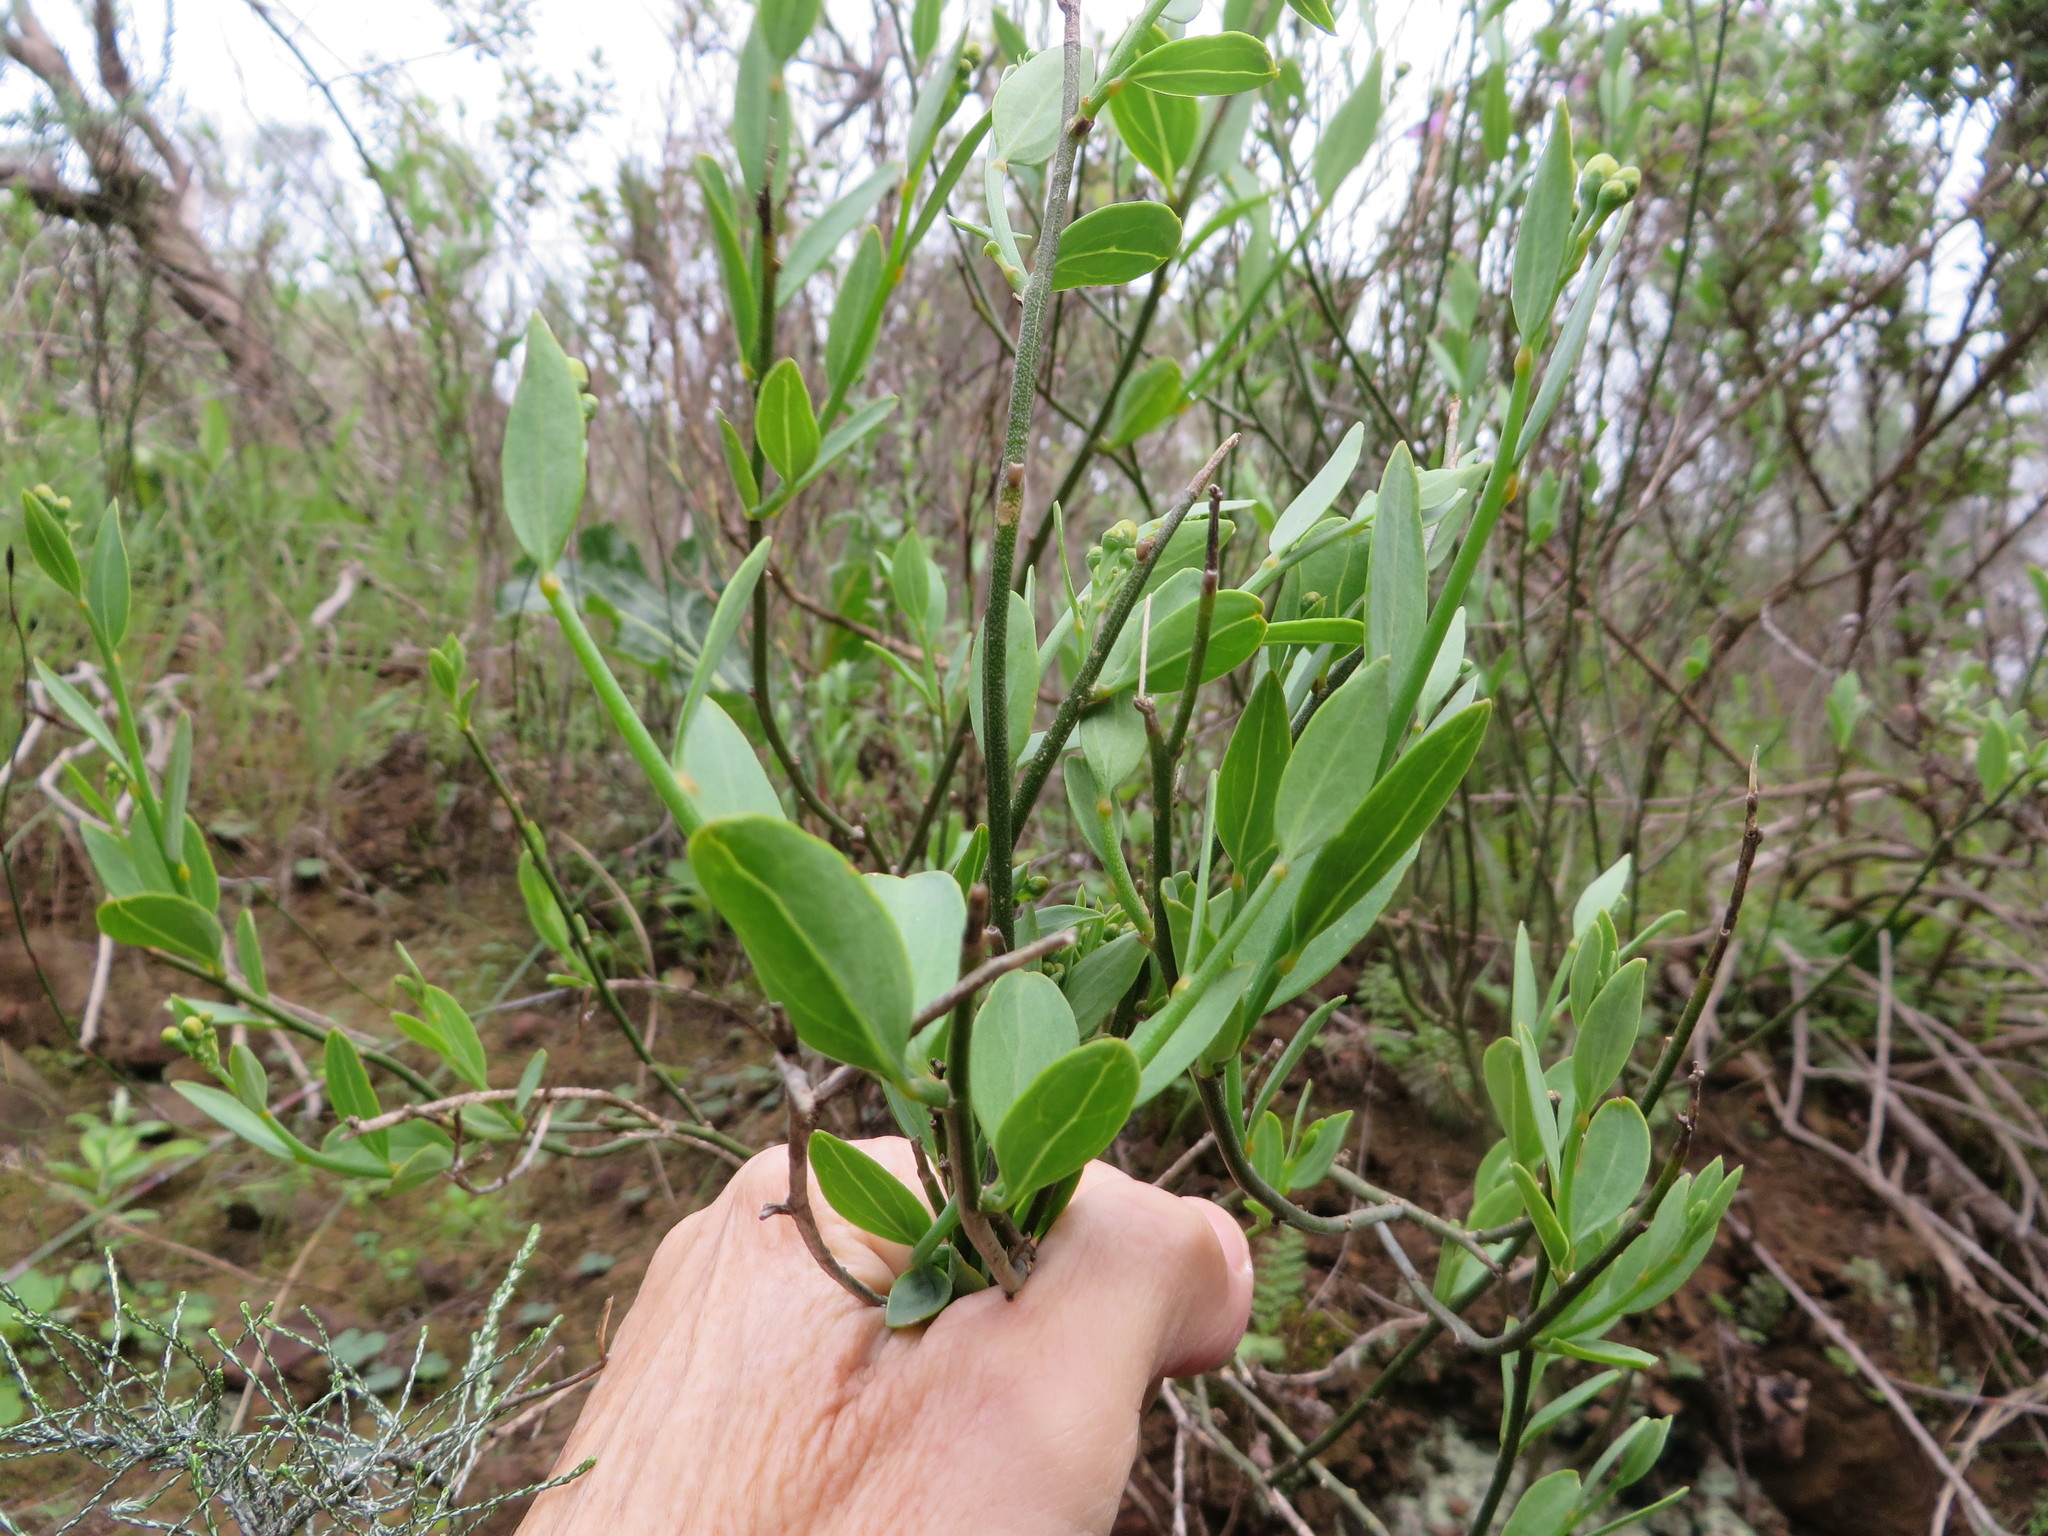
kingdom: Plantae
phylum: Tracheophyta
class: Magnoliopsida
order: Solanales
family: Montiniaceae
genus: Montinia
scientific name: Montinia caryophyllacea
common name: Wild clove-bush
